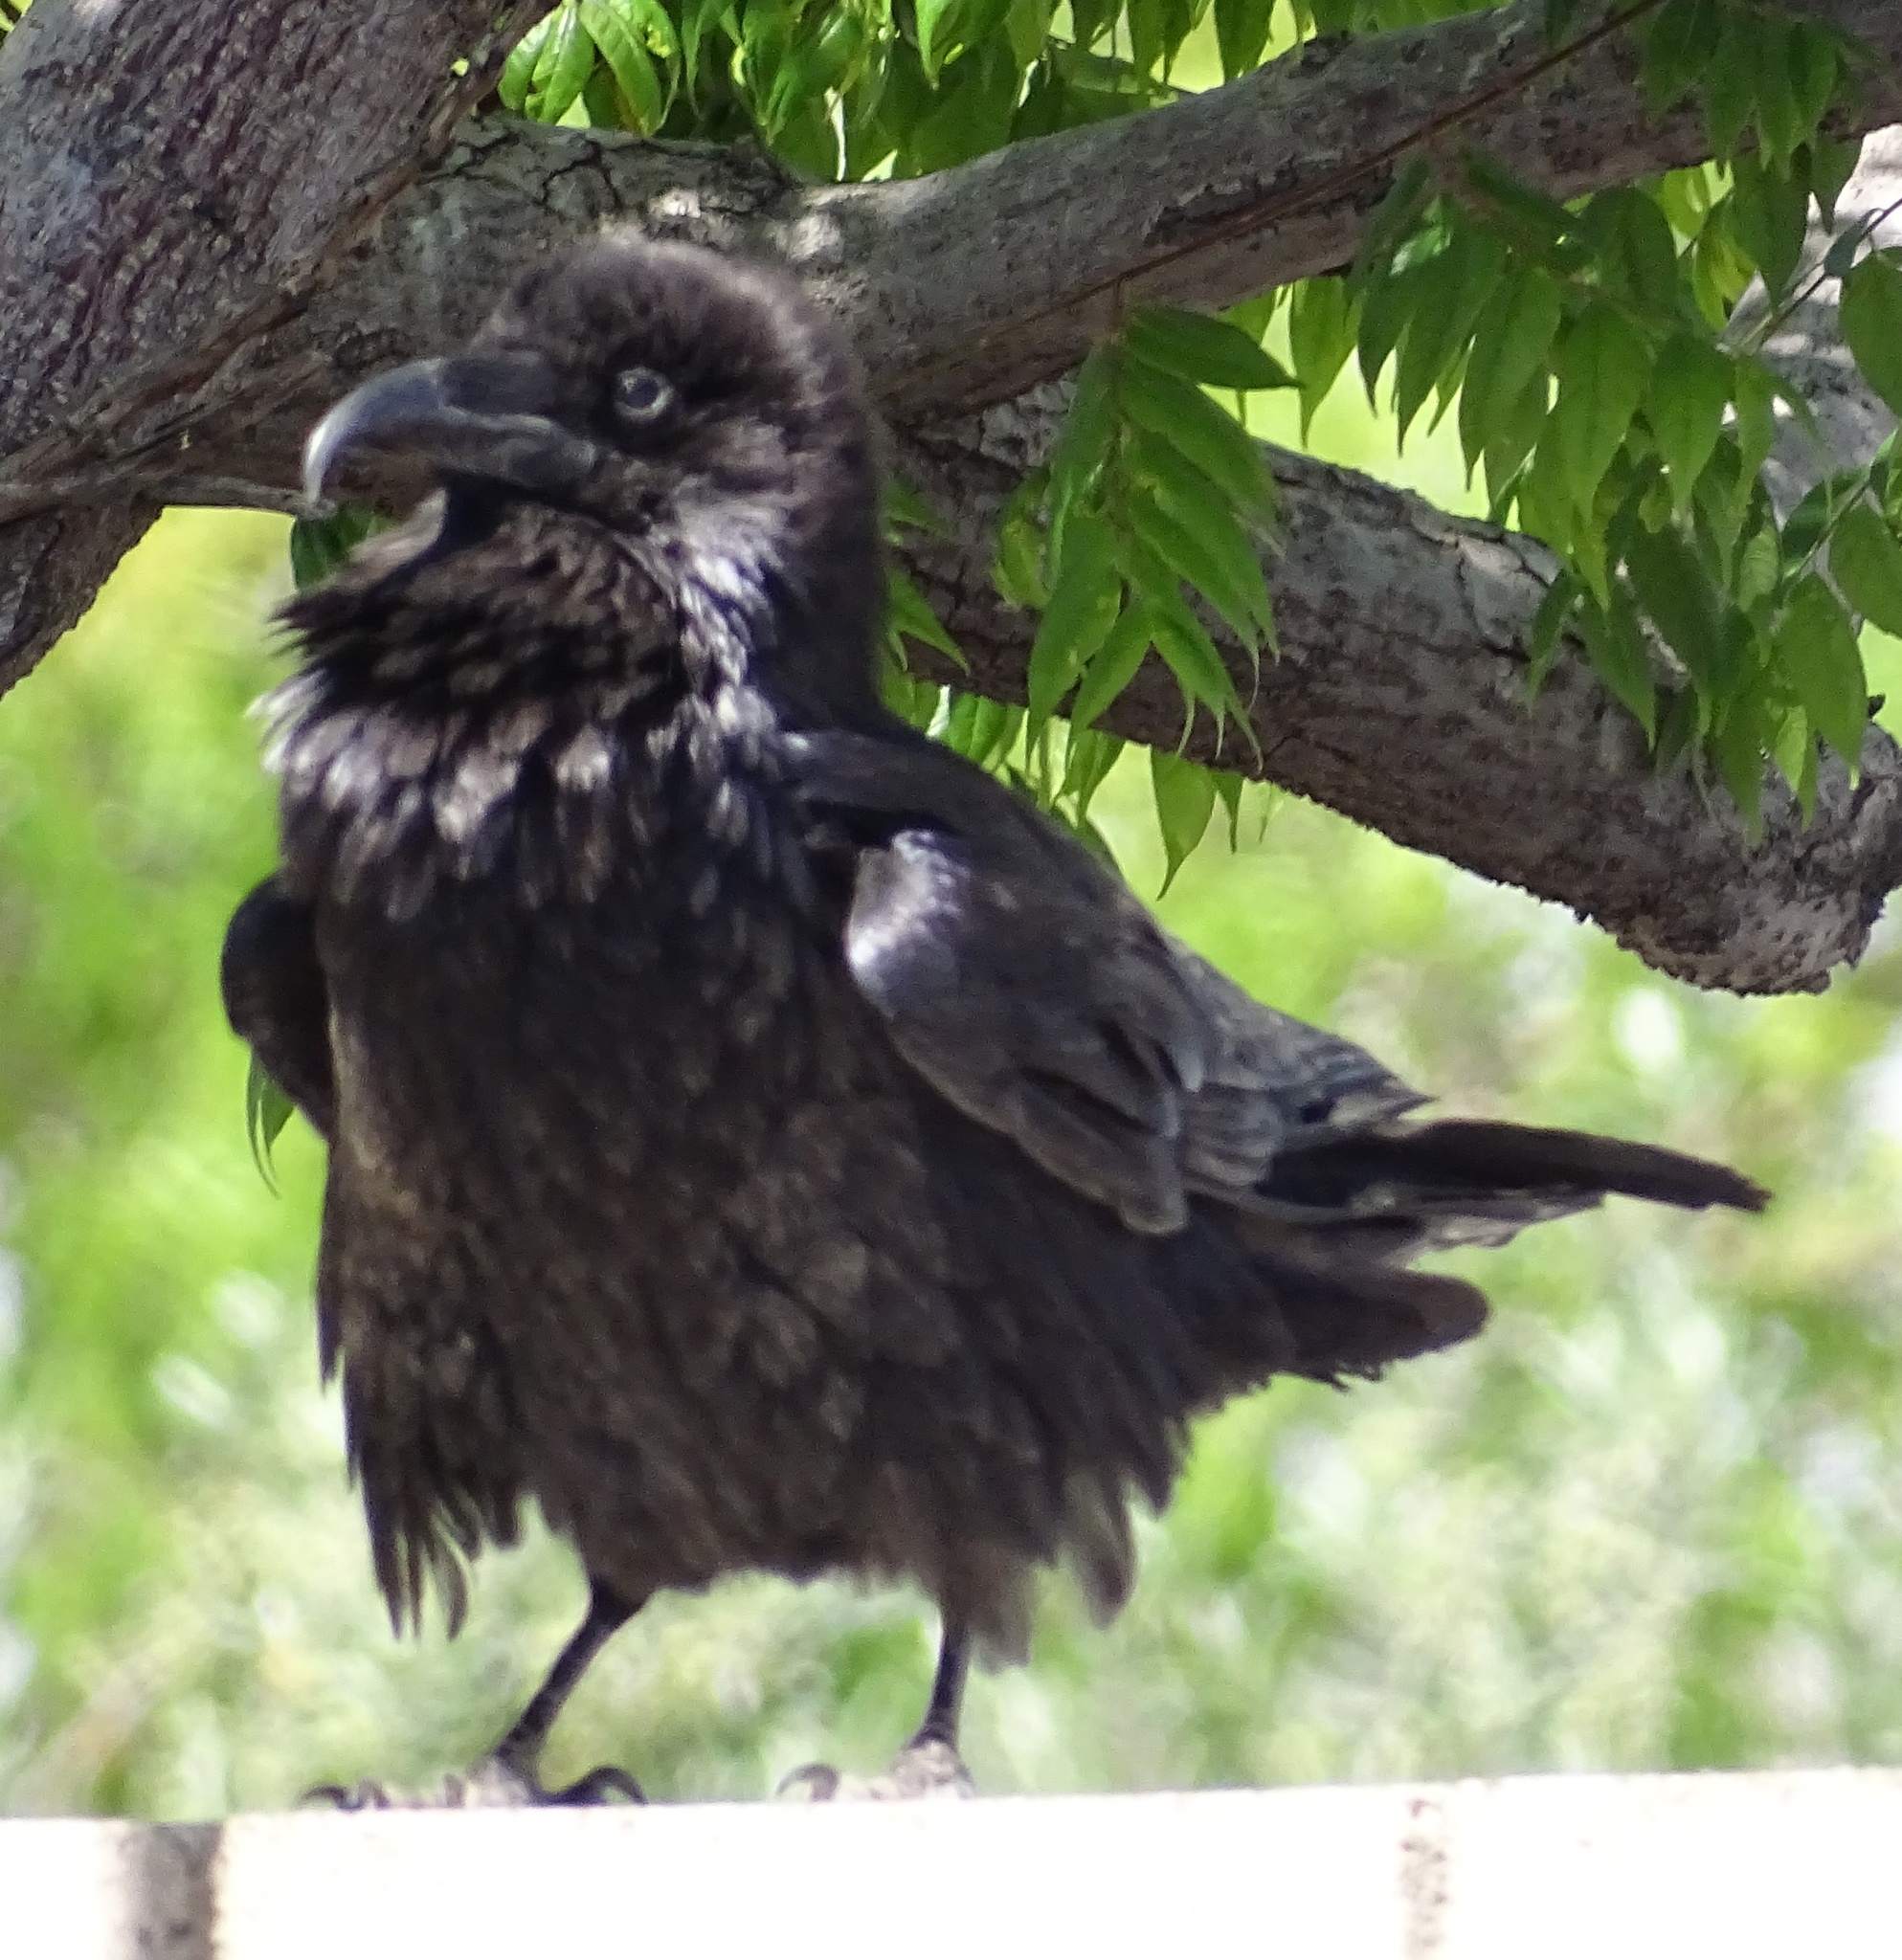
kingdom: Animalia
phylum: Chordata
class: Aves
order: Passeriformes
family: Corvidae
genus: Corvus
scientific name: Corvus corax
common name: Common raven
